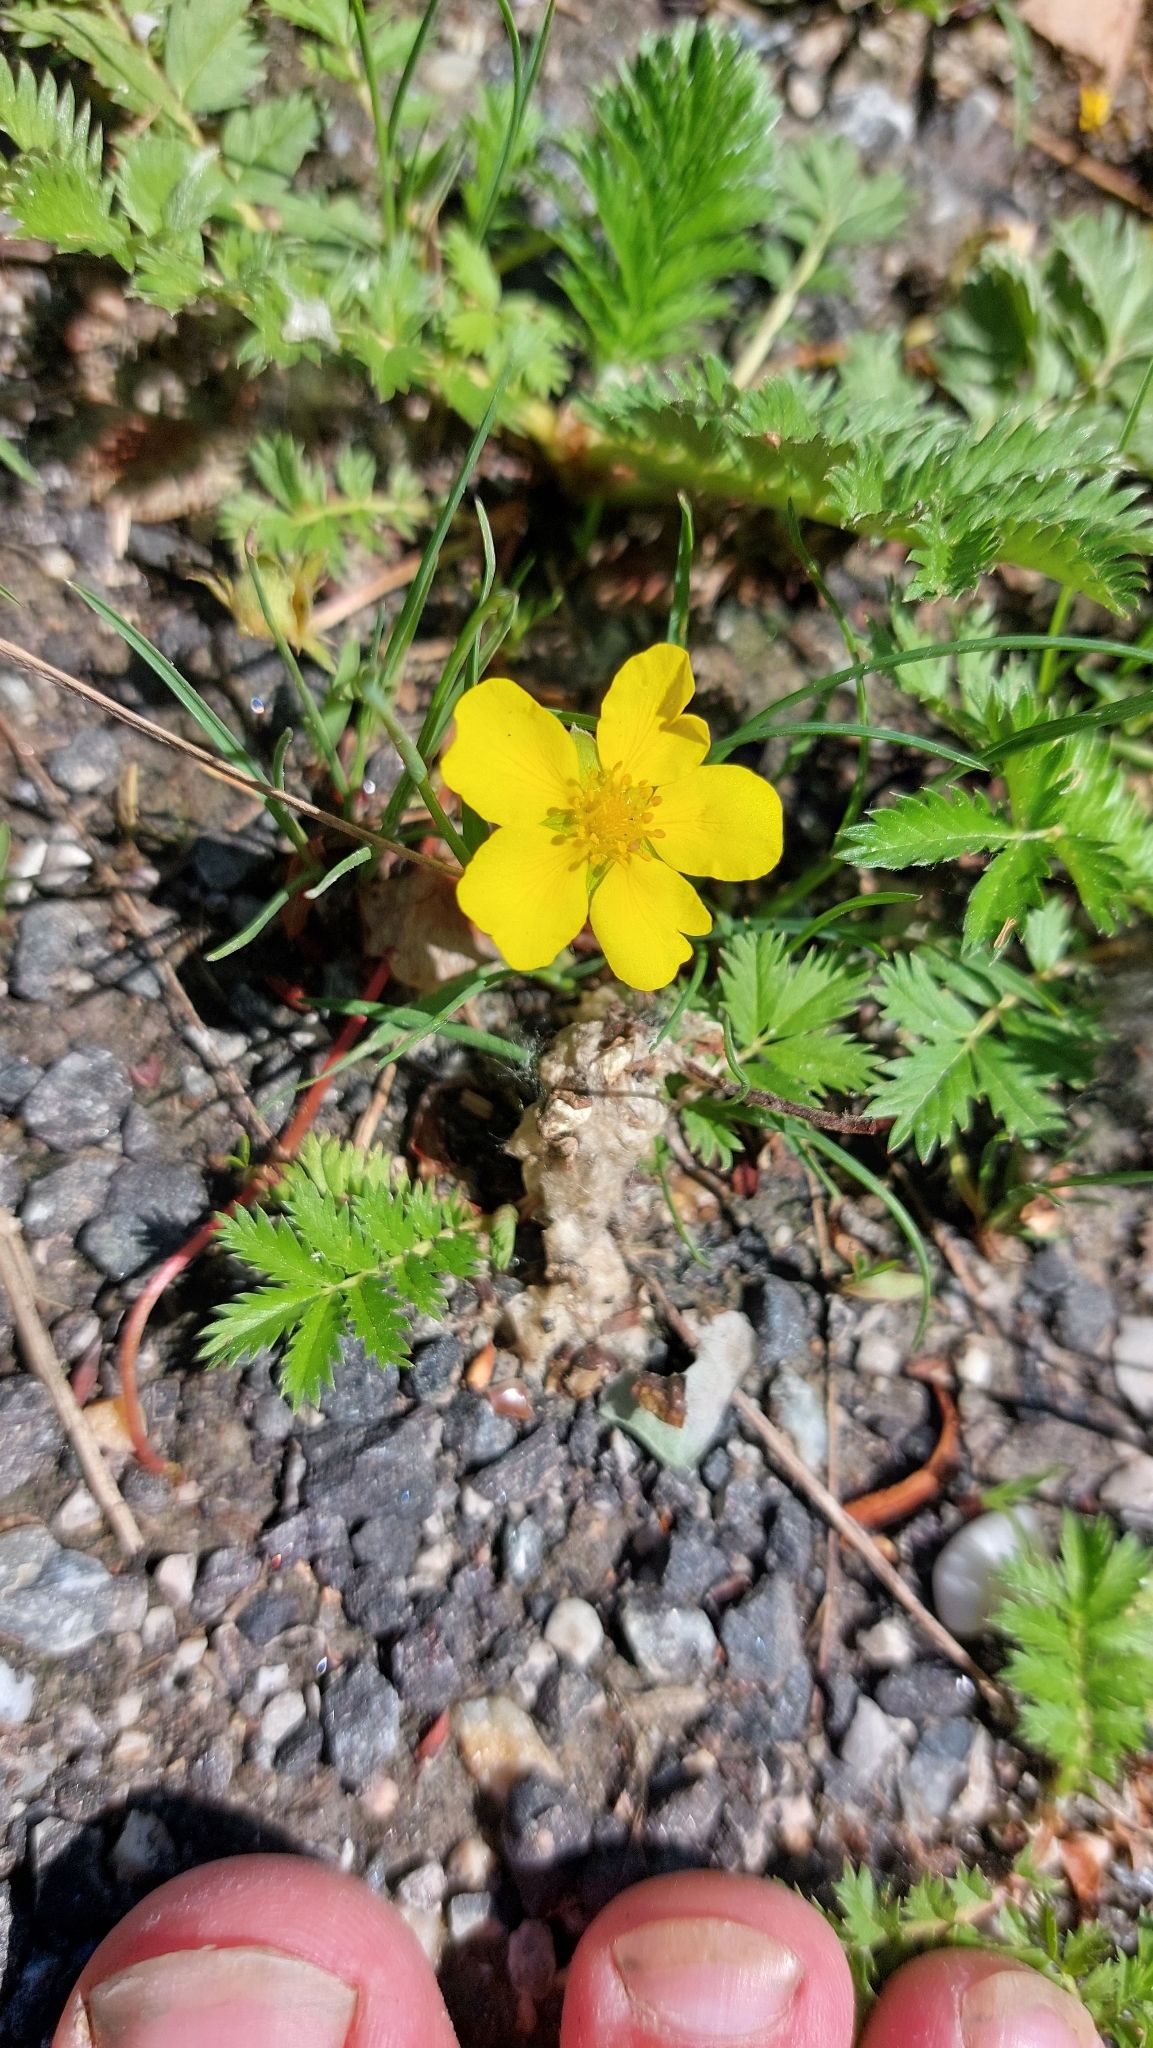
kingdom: Plantae
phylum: Tracheophyta
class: Magnoliopsida
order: Rosales
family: Rosaceae
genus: Argentina
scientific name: Argentina anserina
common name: Common silverweed
